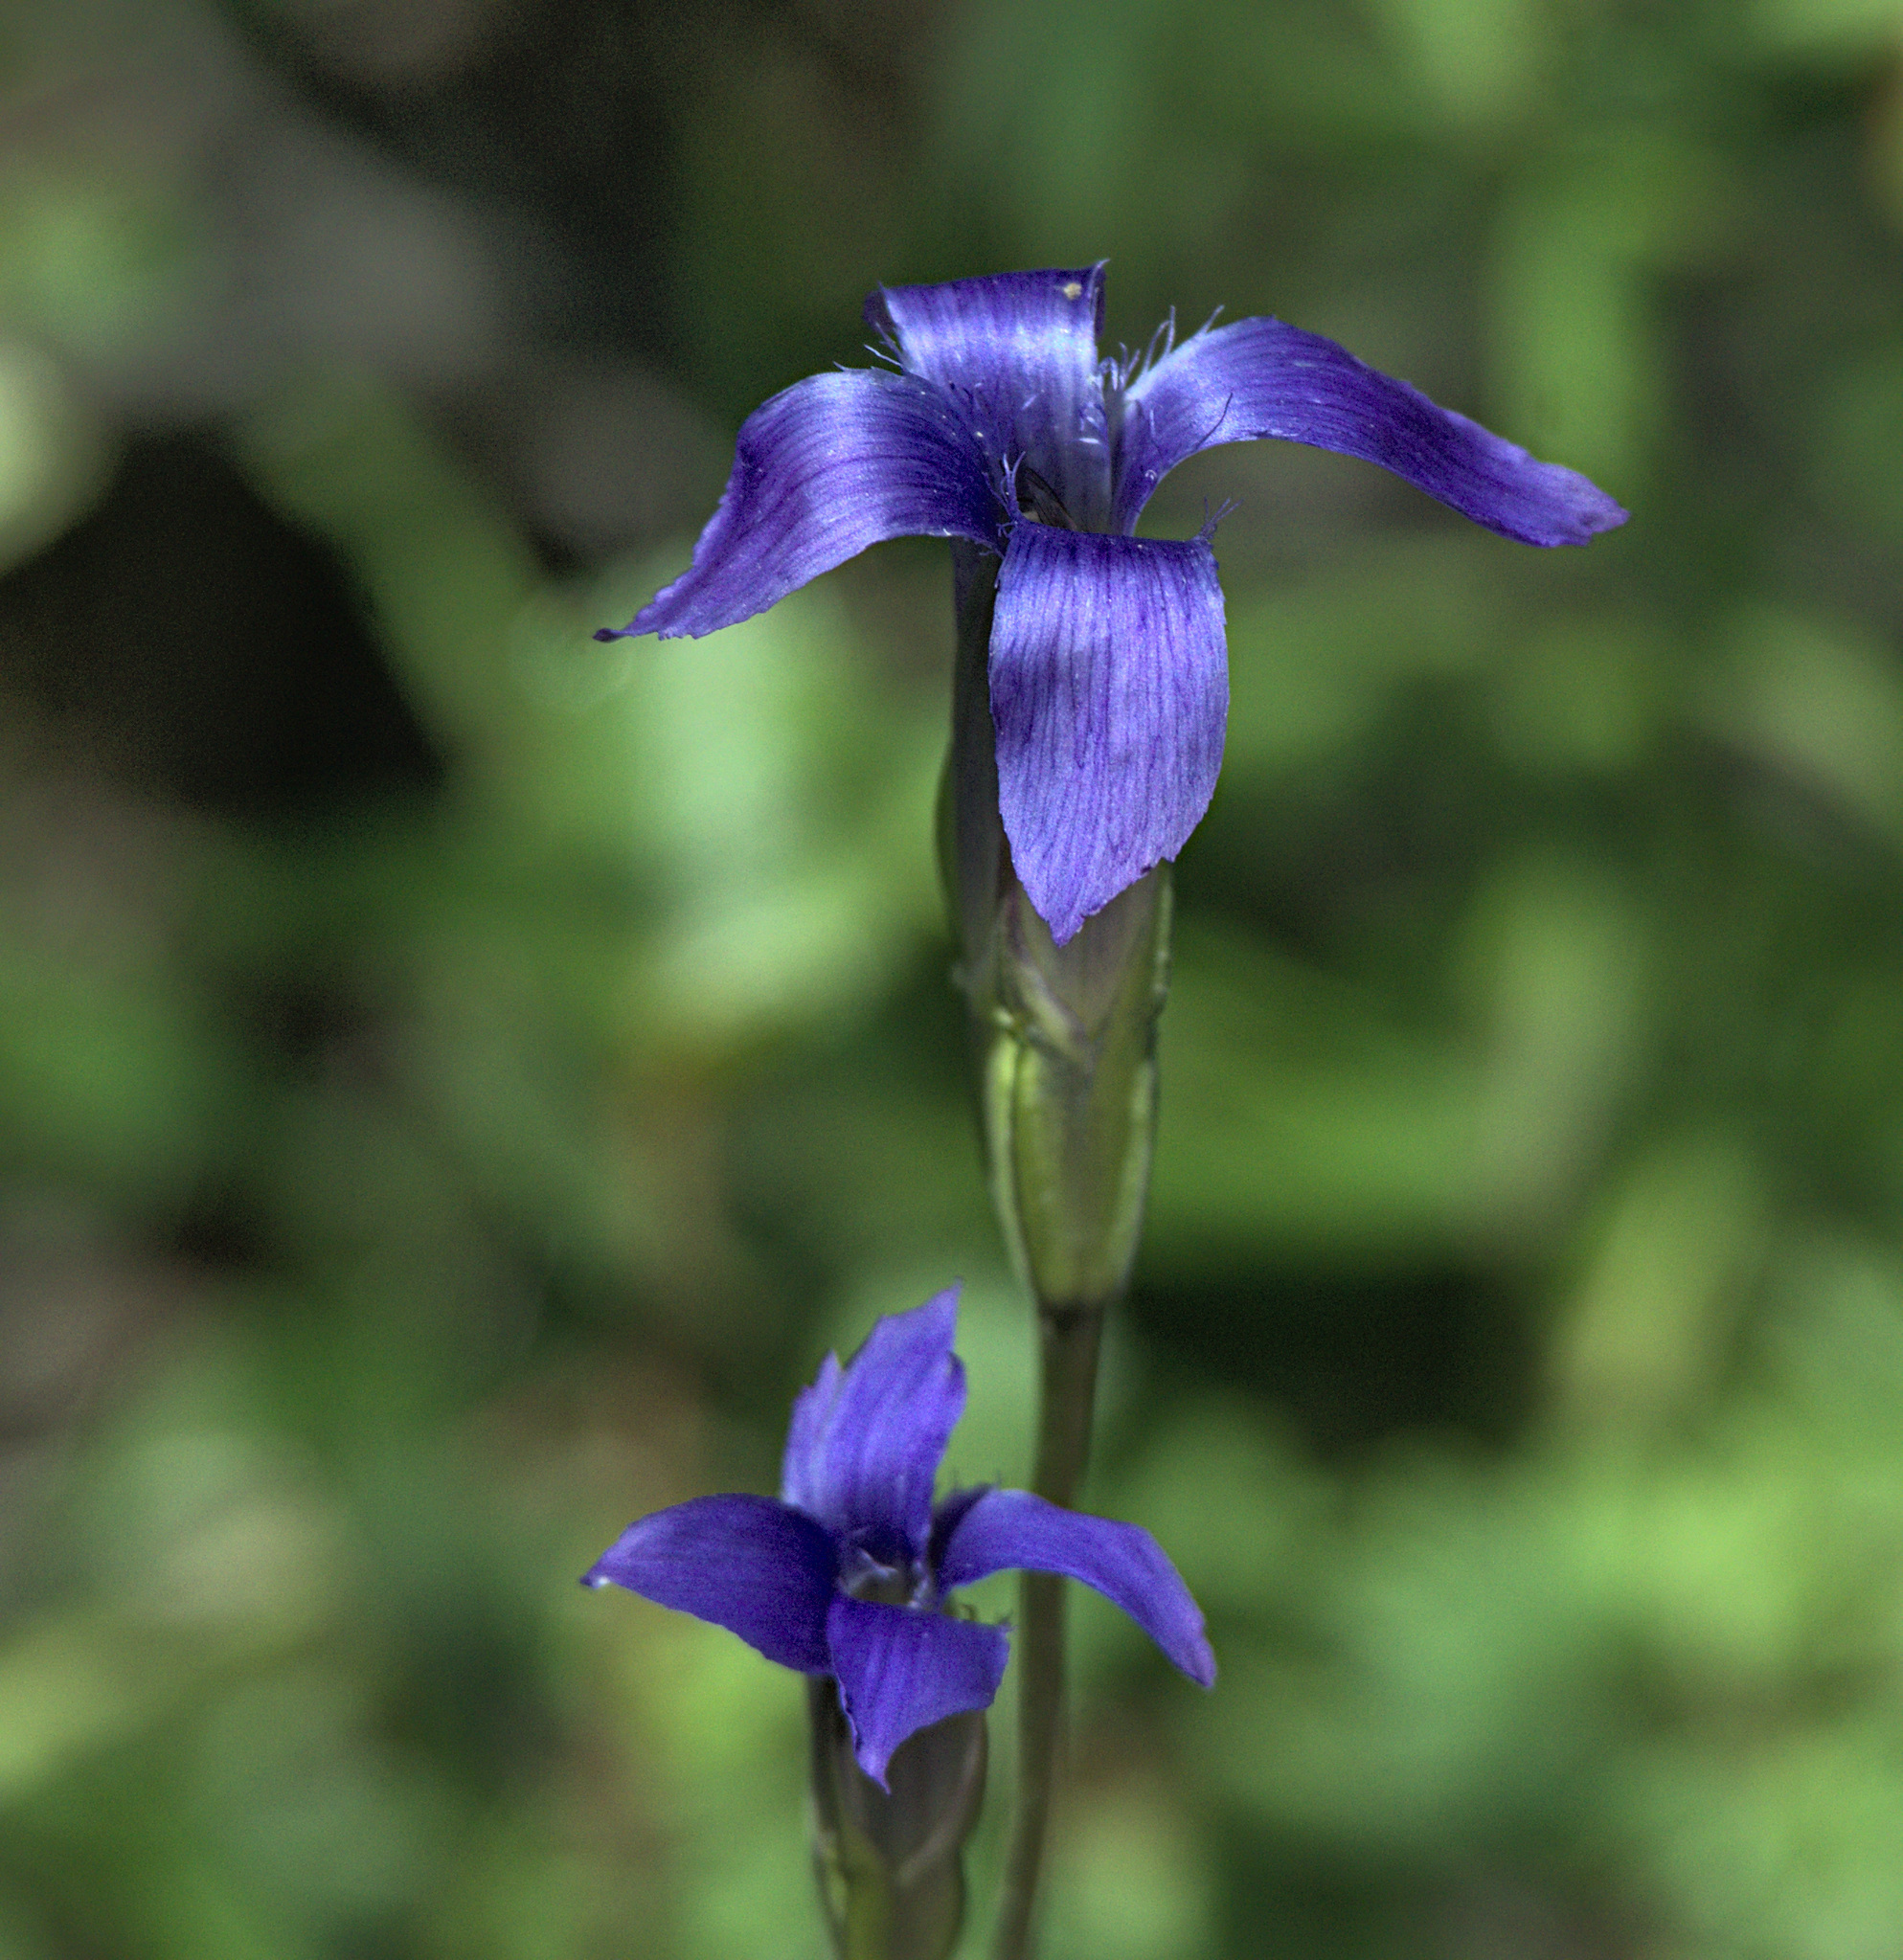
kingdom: Plantae
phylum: Tracheophyta
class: Magnoliopsida
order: Gentianales
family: Gentianaceae
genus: Gentianopsis
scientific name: Gentianopsis barbata
